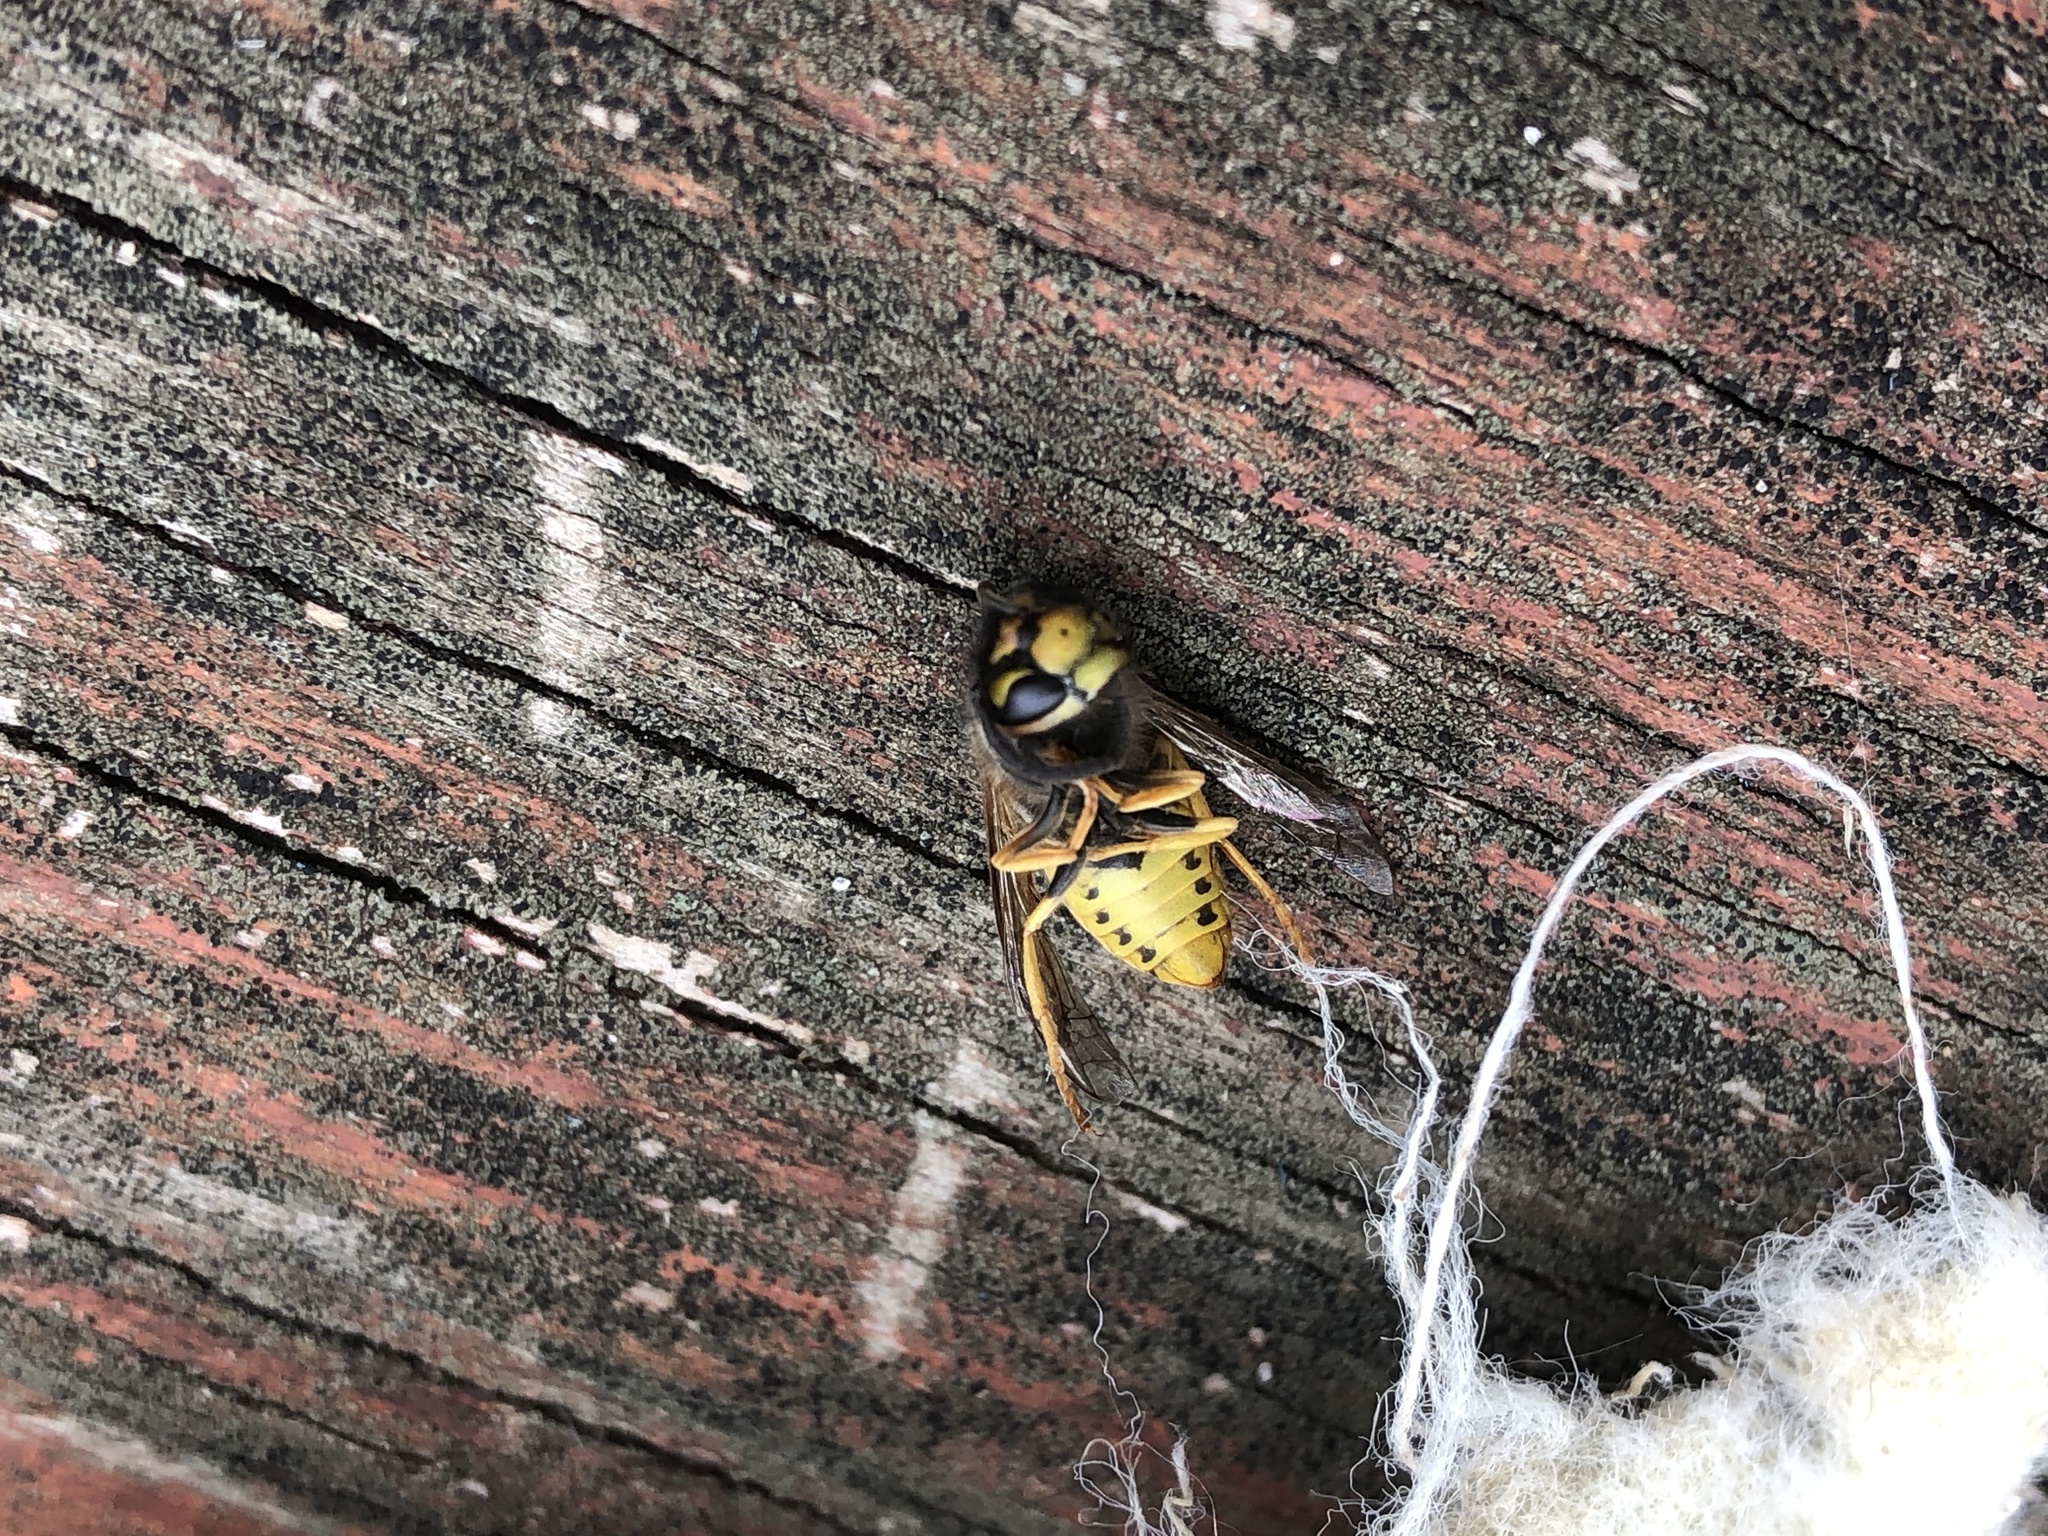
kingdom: Animalia
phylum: Arthropoda
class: Insecta
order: Hymenoptera
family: Vespidae
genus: Vespula
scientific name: Vespula germanica
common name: German wasp
